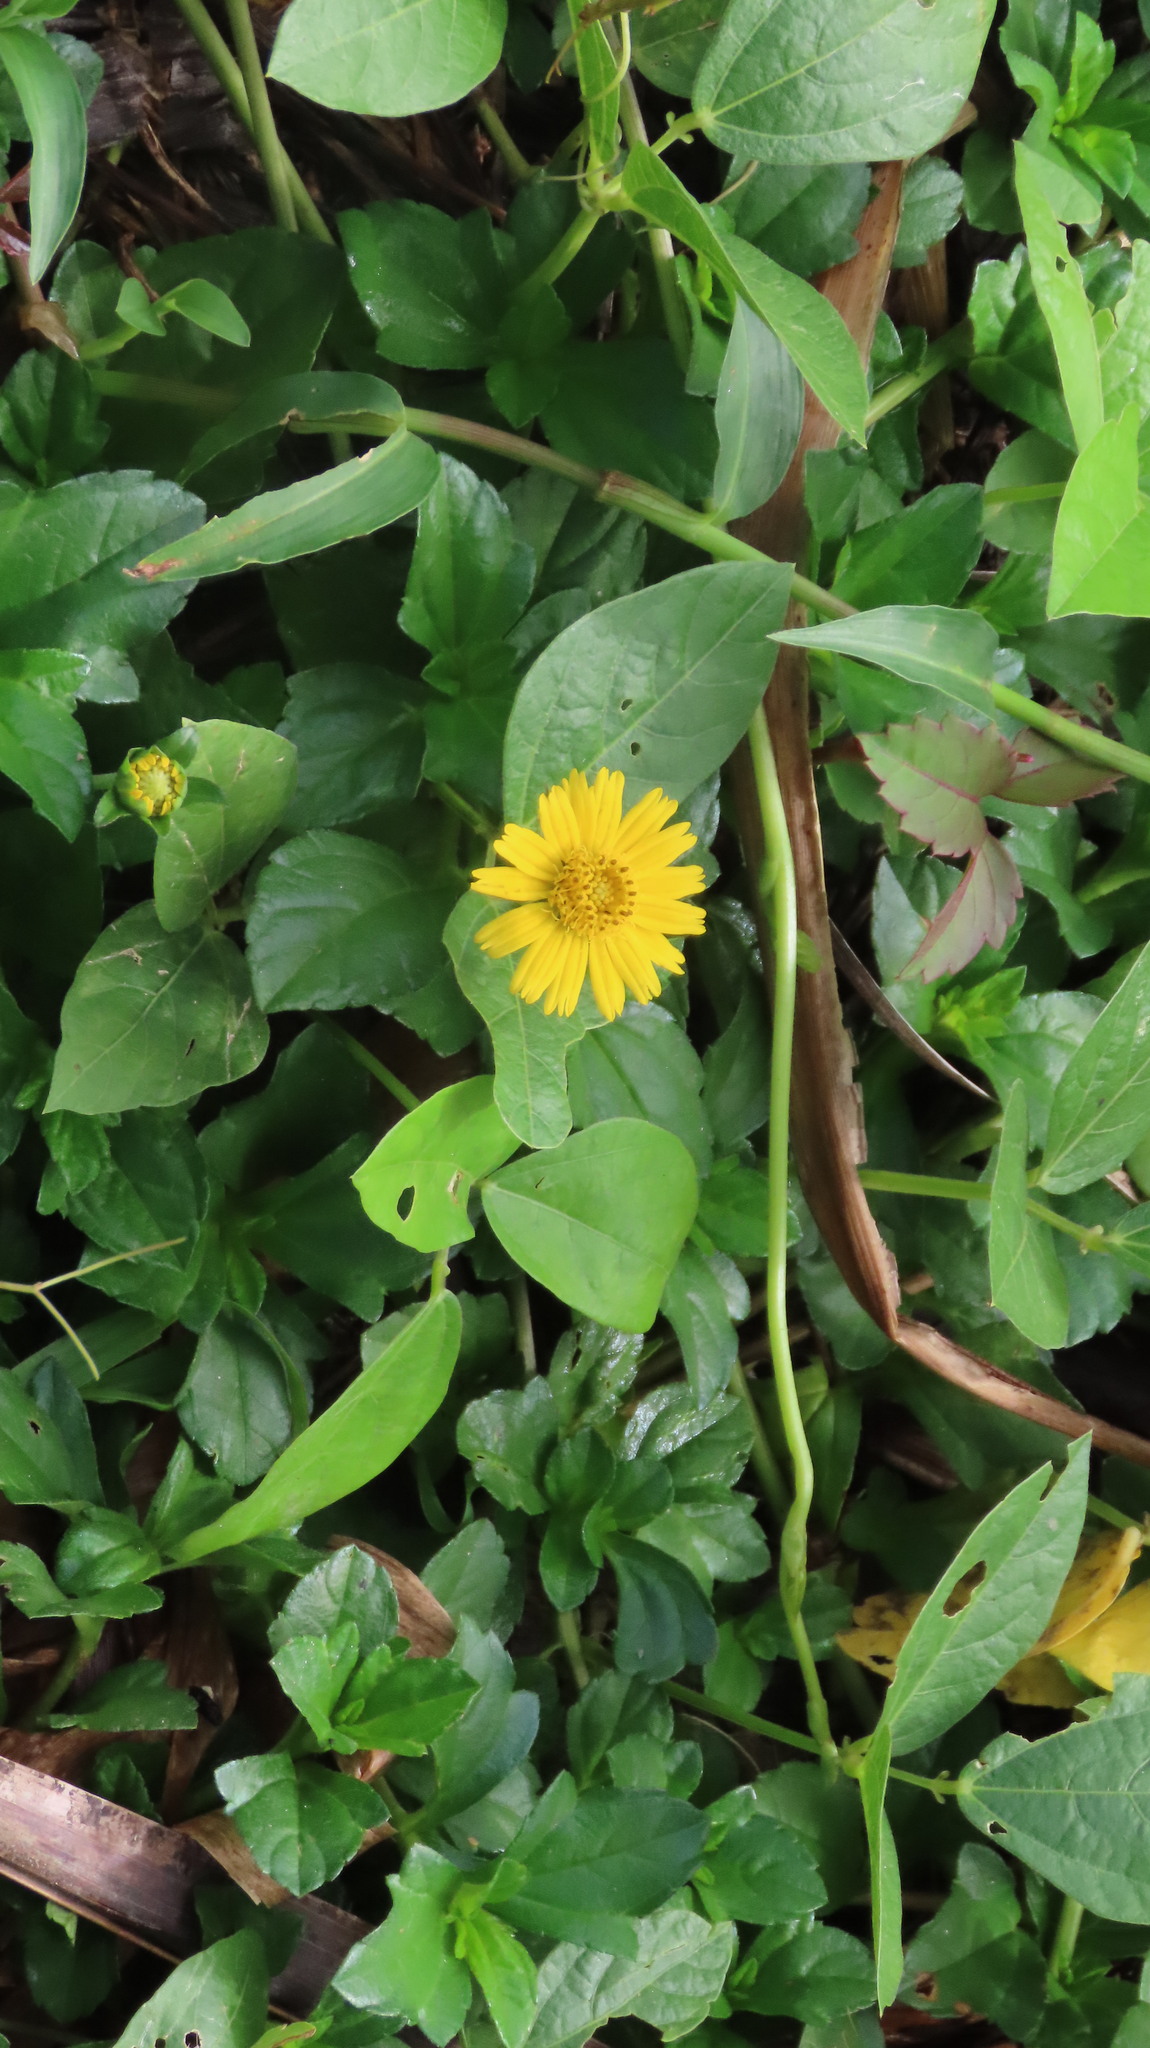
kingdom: Plantae
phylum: Tracheophyta
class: Magnoliopsida
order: Asterales
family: Asteraceae
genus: Sphagneticola
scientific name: Sphagneticola trilobata
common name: Bay biscayne creeping-oxeye
